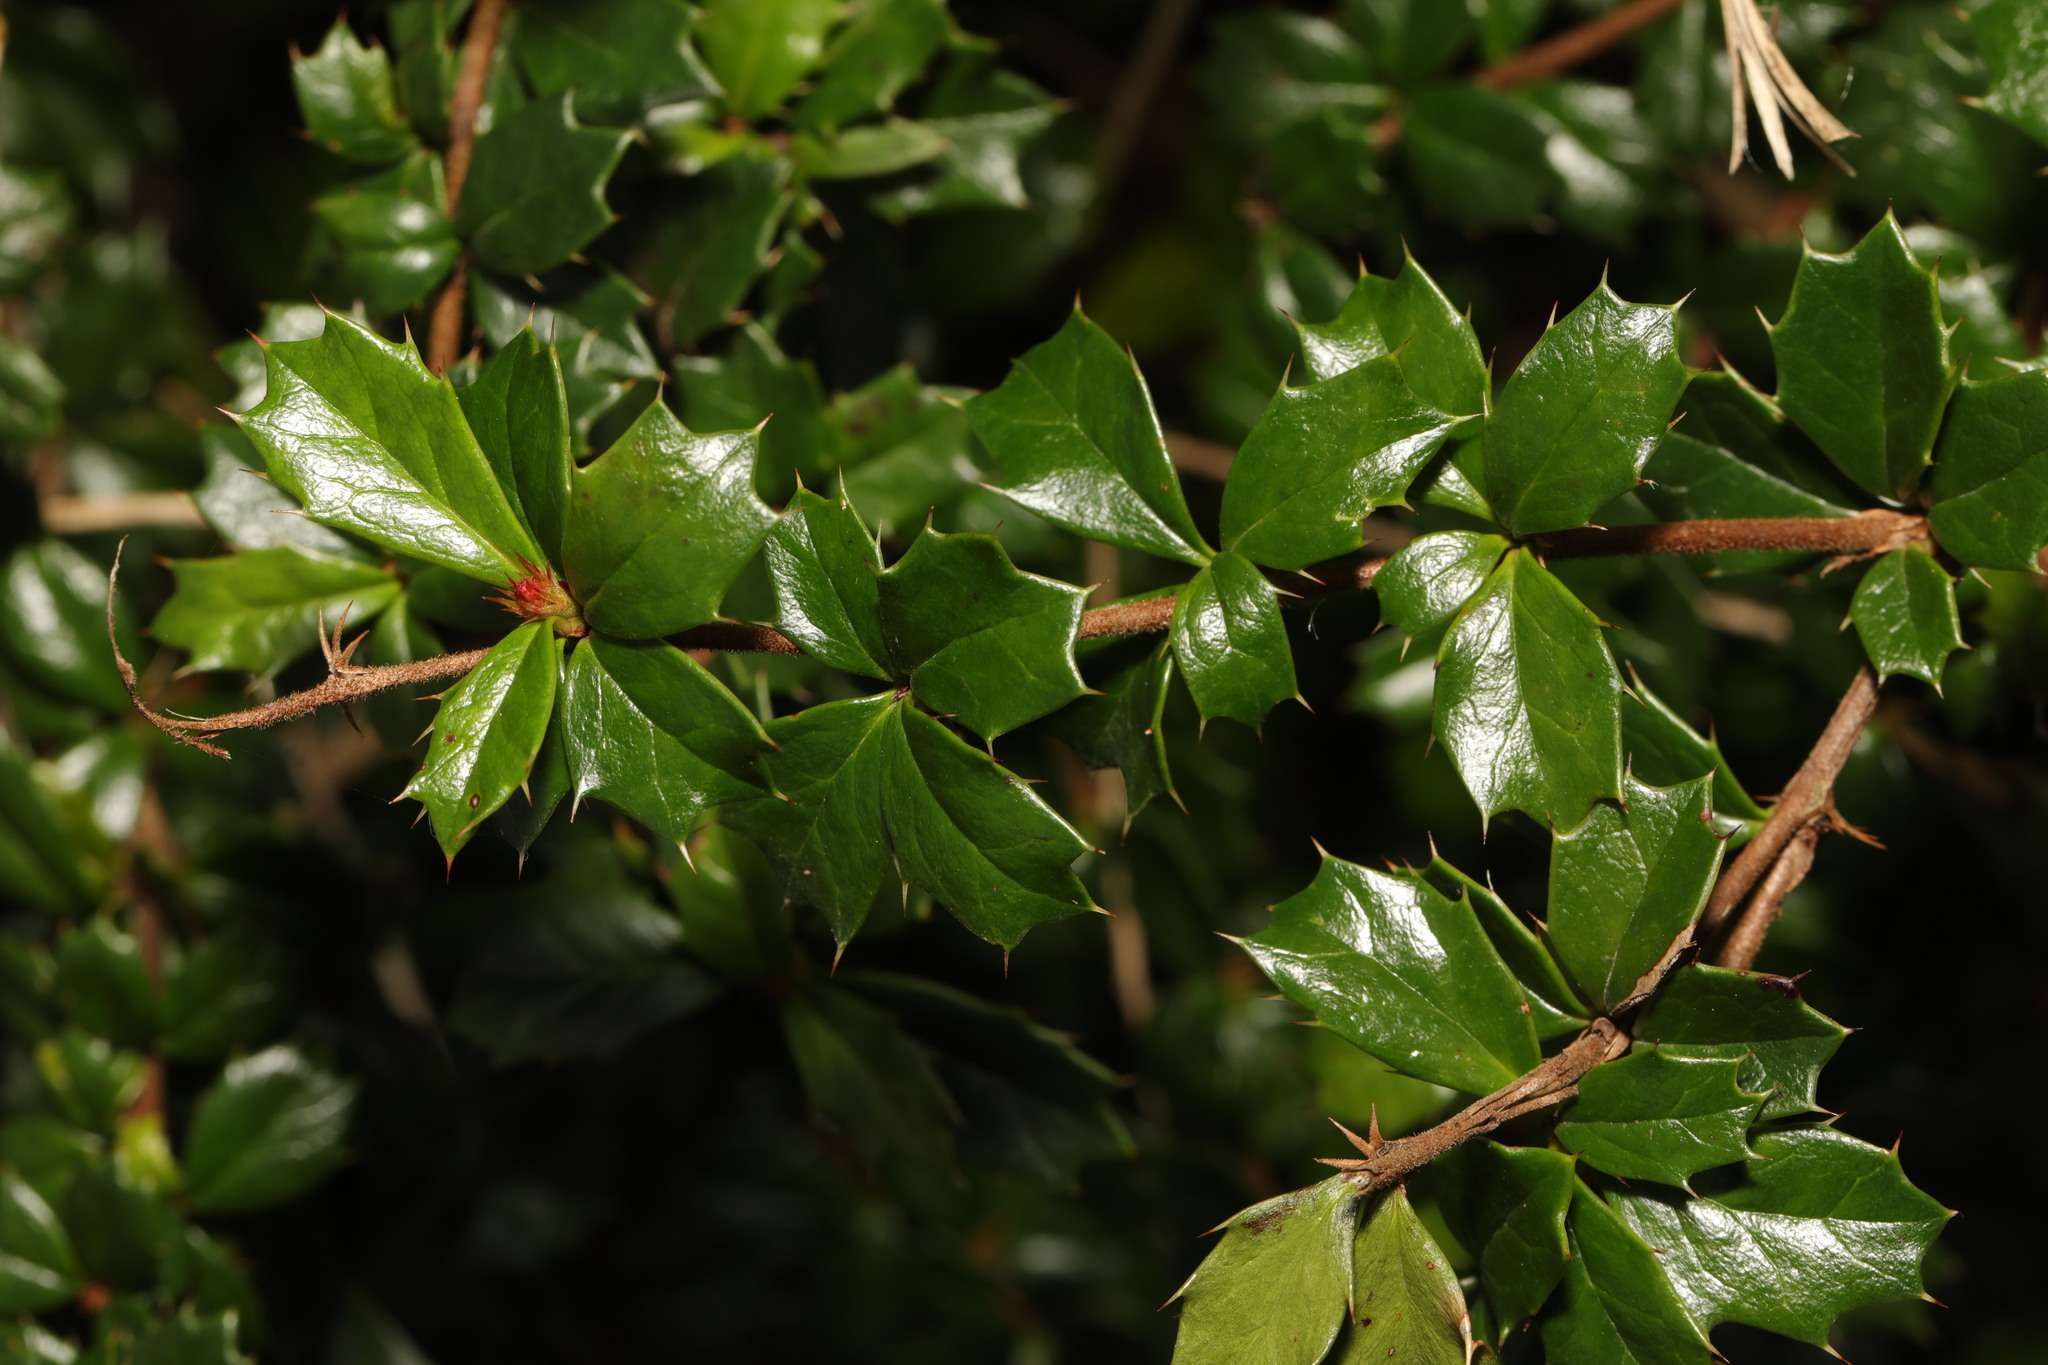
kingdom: Plantae
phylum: Tracheophyta
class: Magnoliopsida
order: Ranunculales
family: Berberidaceae
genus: Berberis
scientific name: Berberis darwinii
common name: Darwin's barberry
